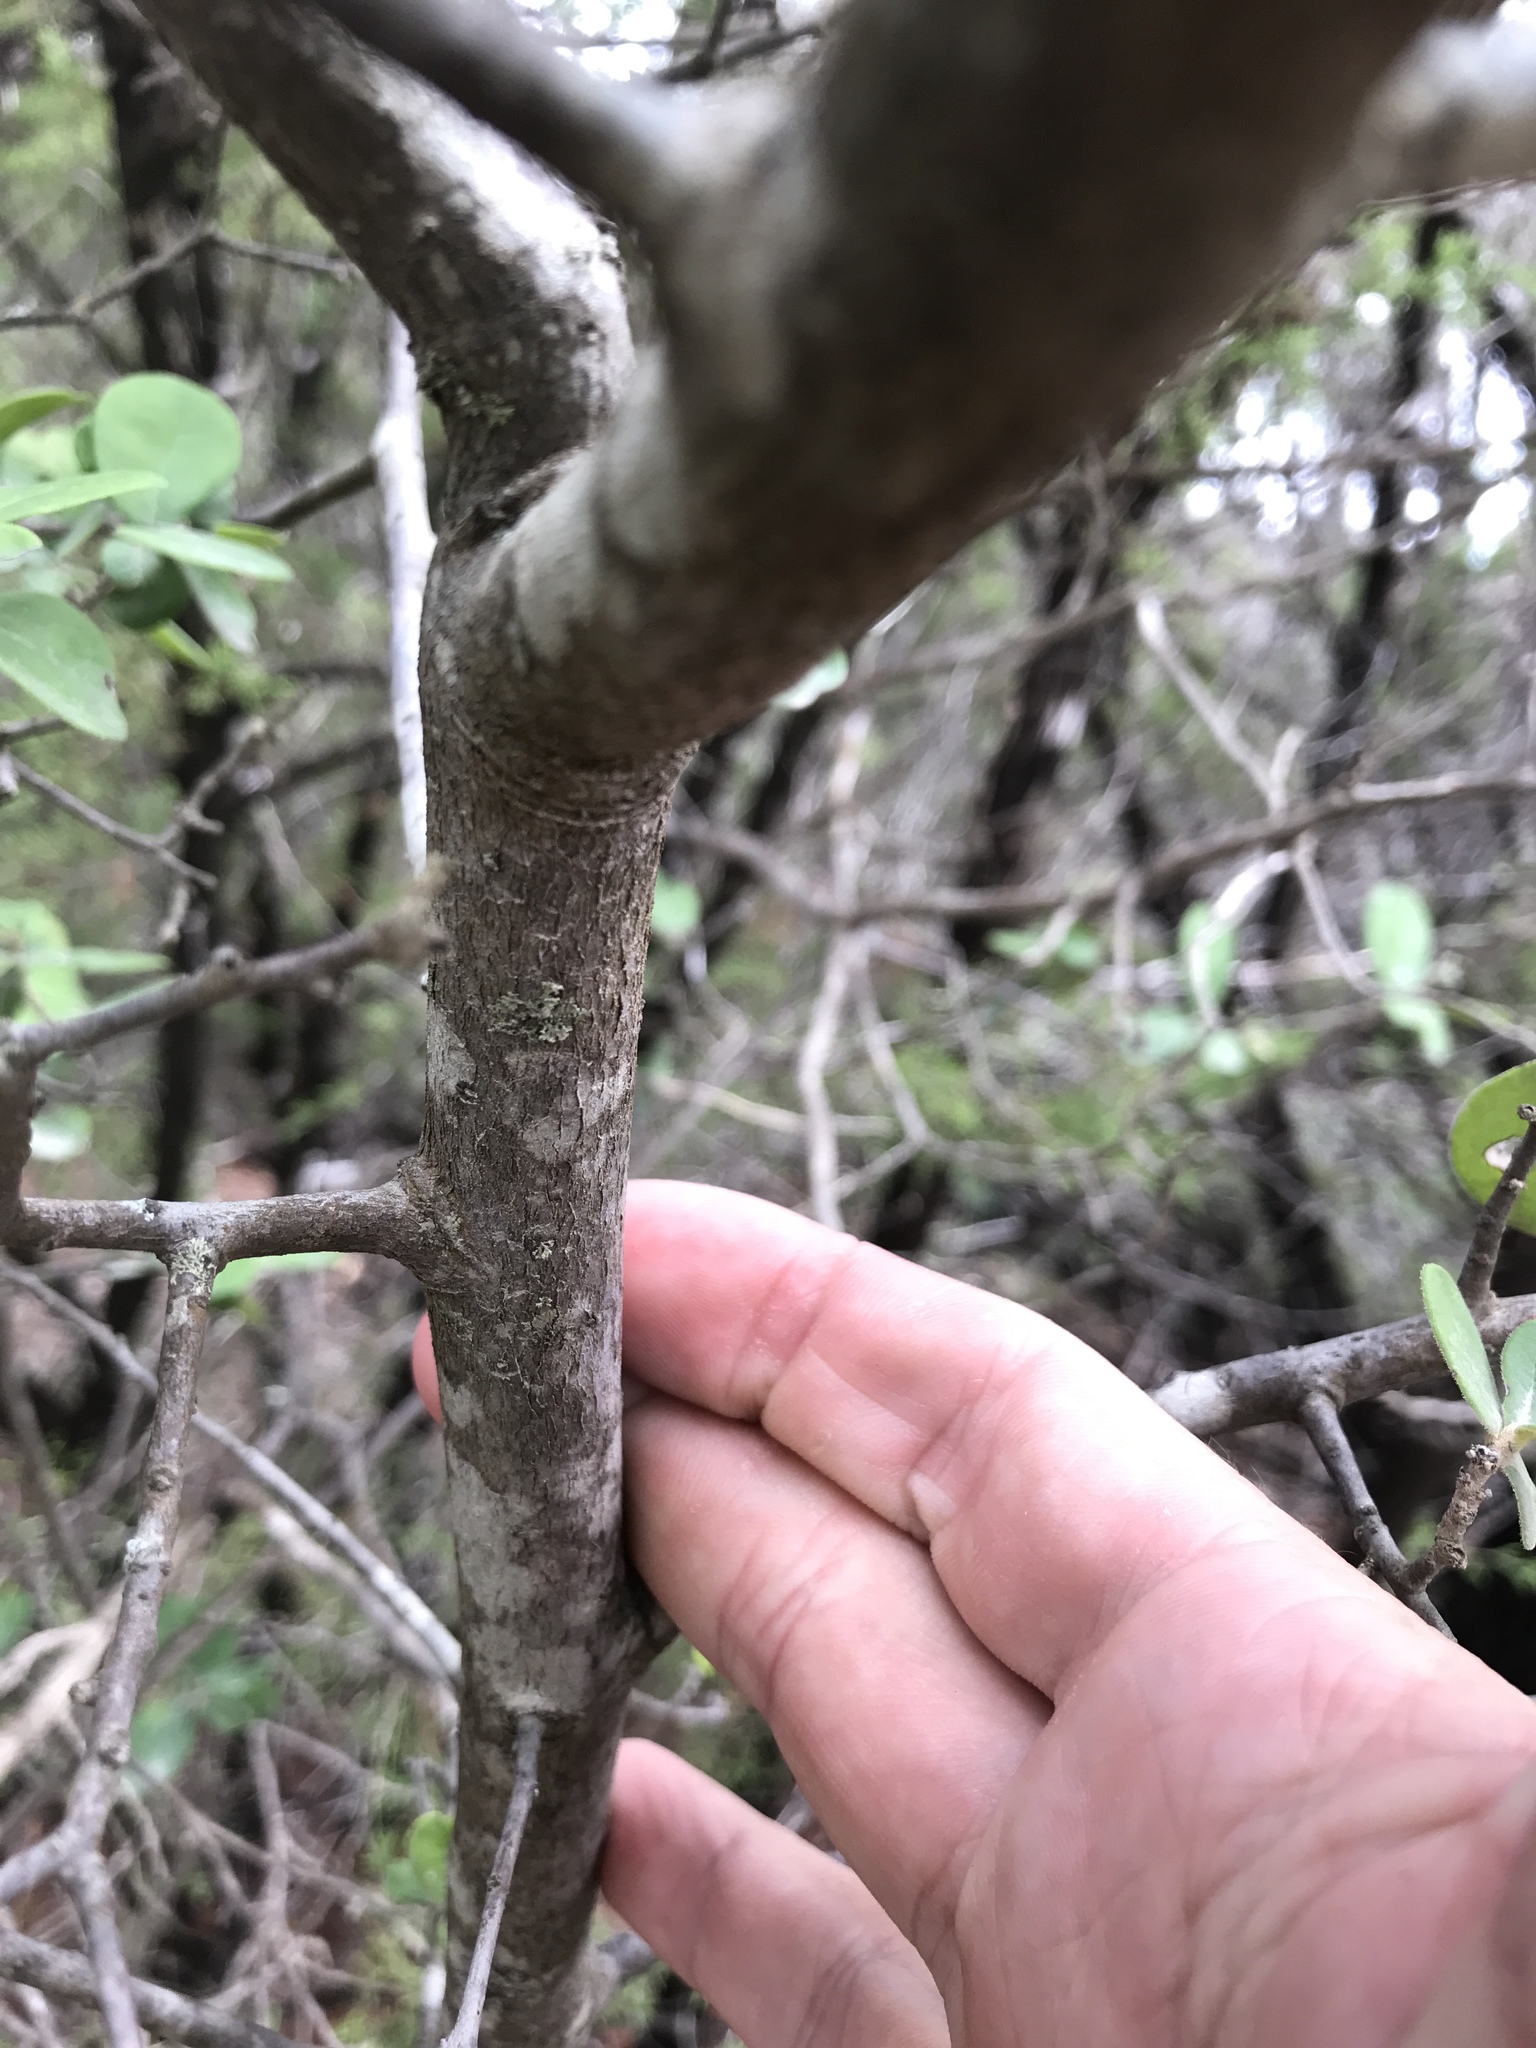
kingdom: Plantae
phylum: Tracheophyta
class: Magnoliopsida
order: Ericales
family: Ebenaceae
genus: Diospyros
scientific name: Diospyros texana
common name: Texas persimmon
